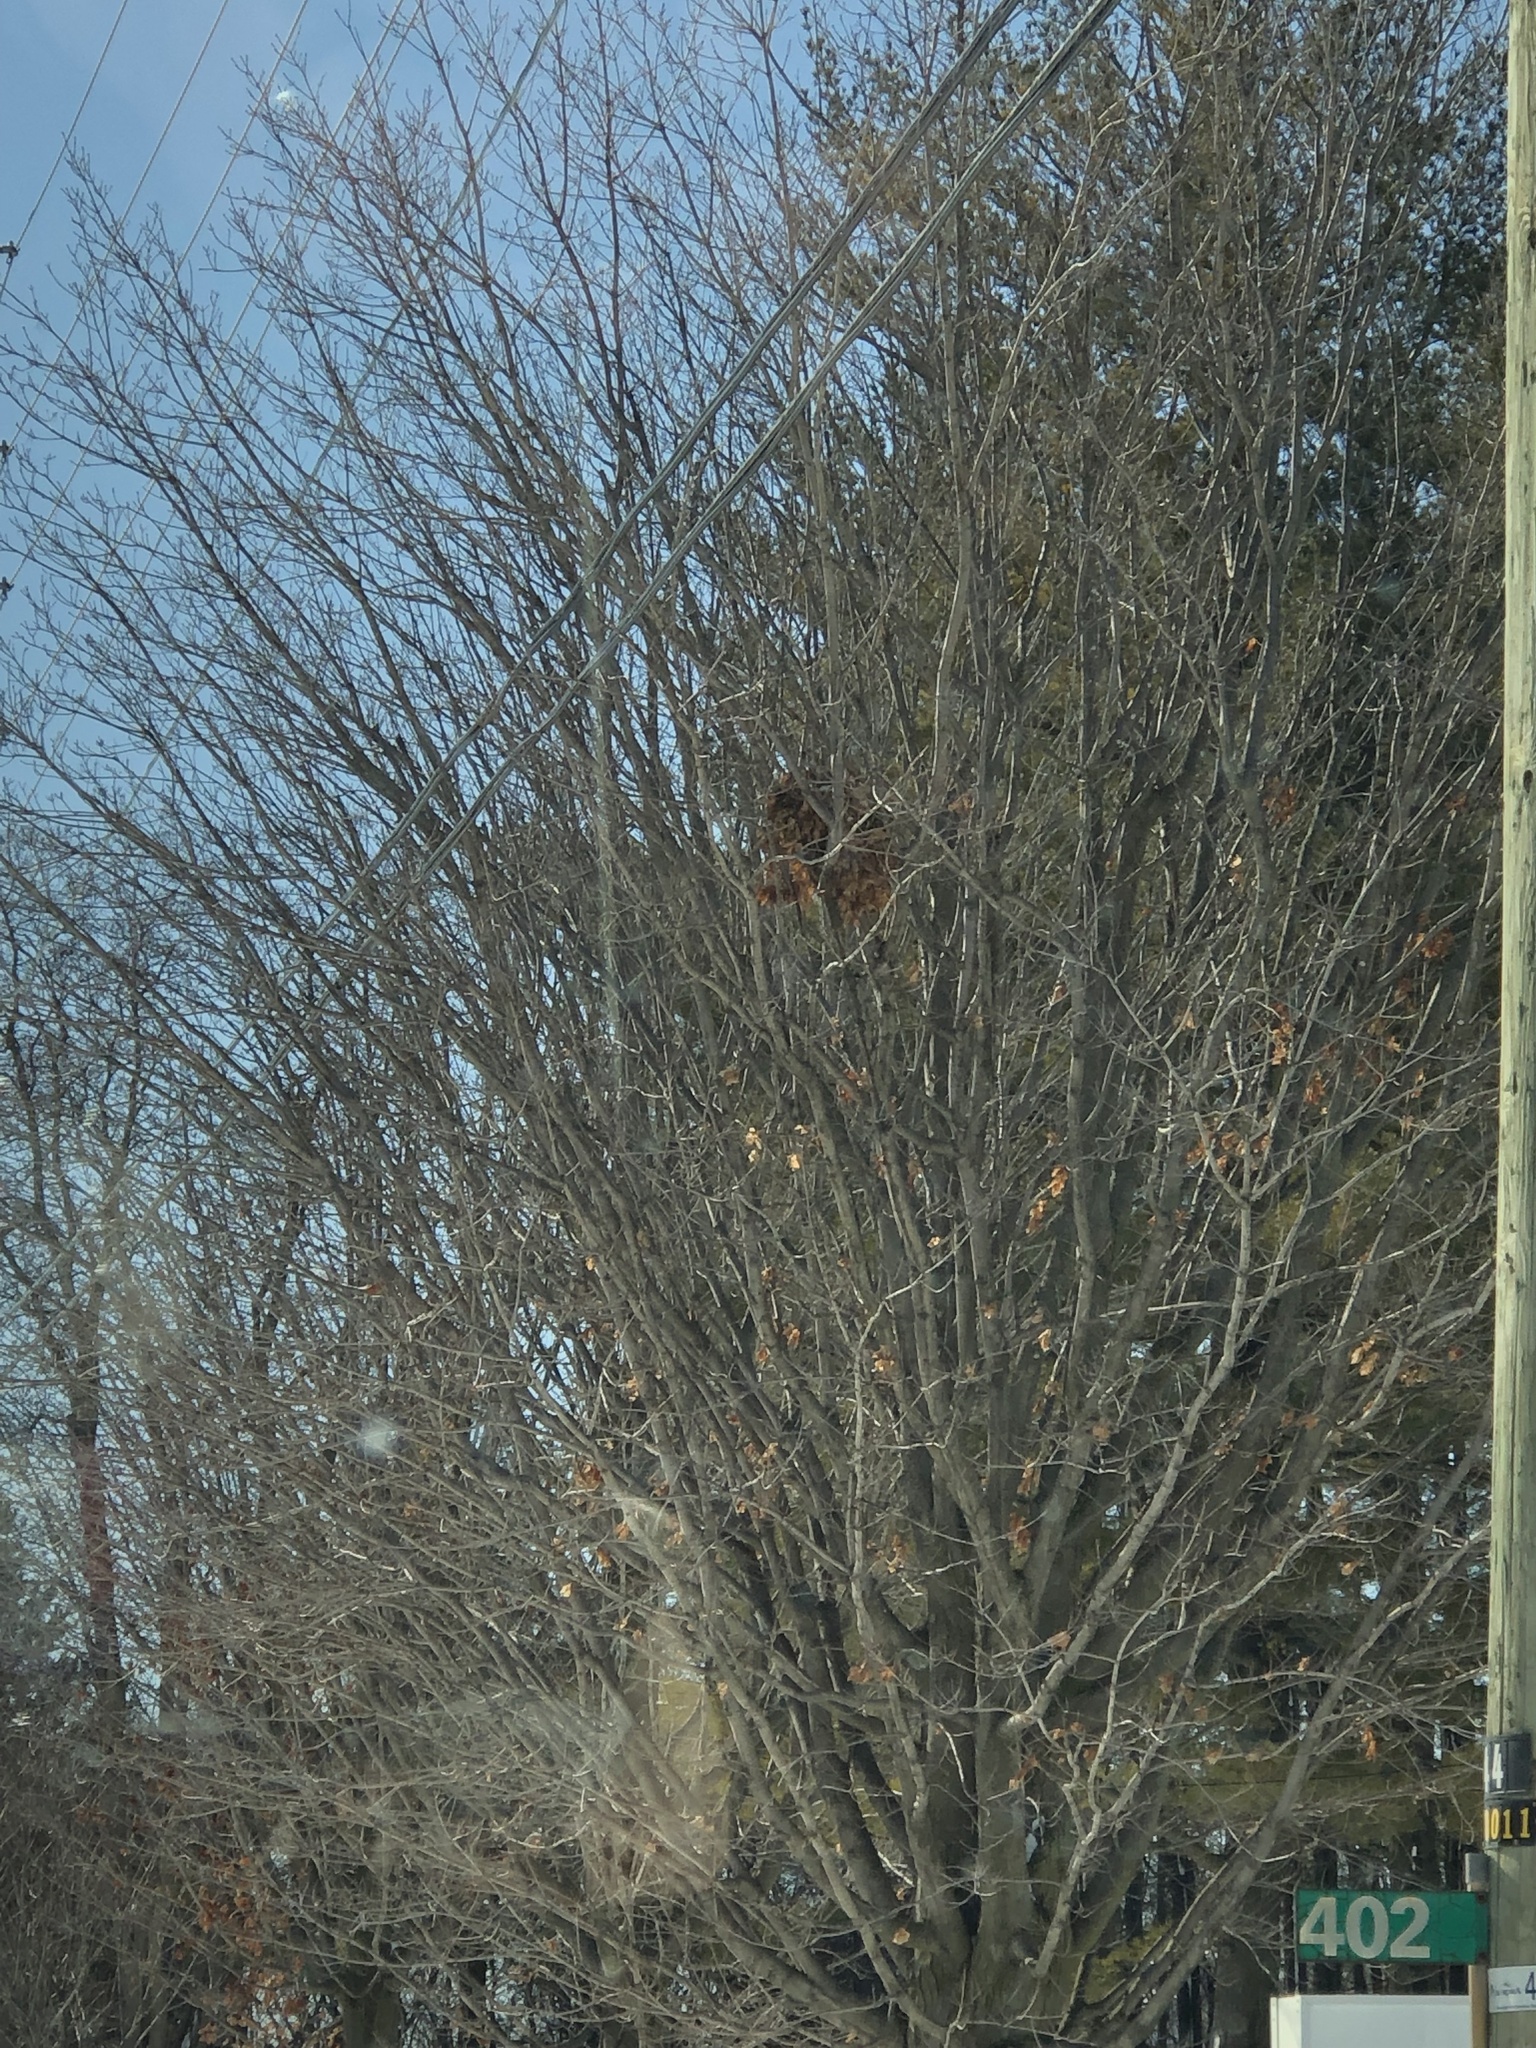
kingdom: Animalia
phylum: Chordata
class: Mammalia
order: Rodentia
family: Sciuridae
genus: Sciurus
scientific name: Sciurus carolinensis
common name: Eastern gray squirrel
